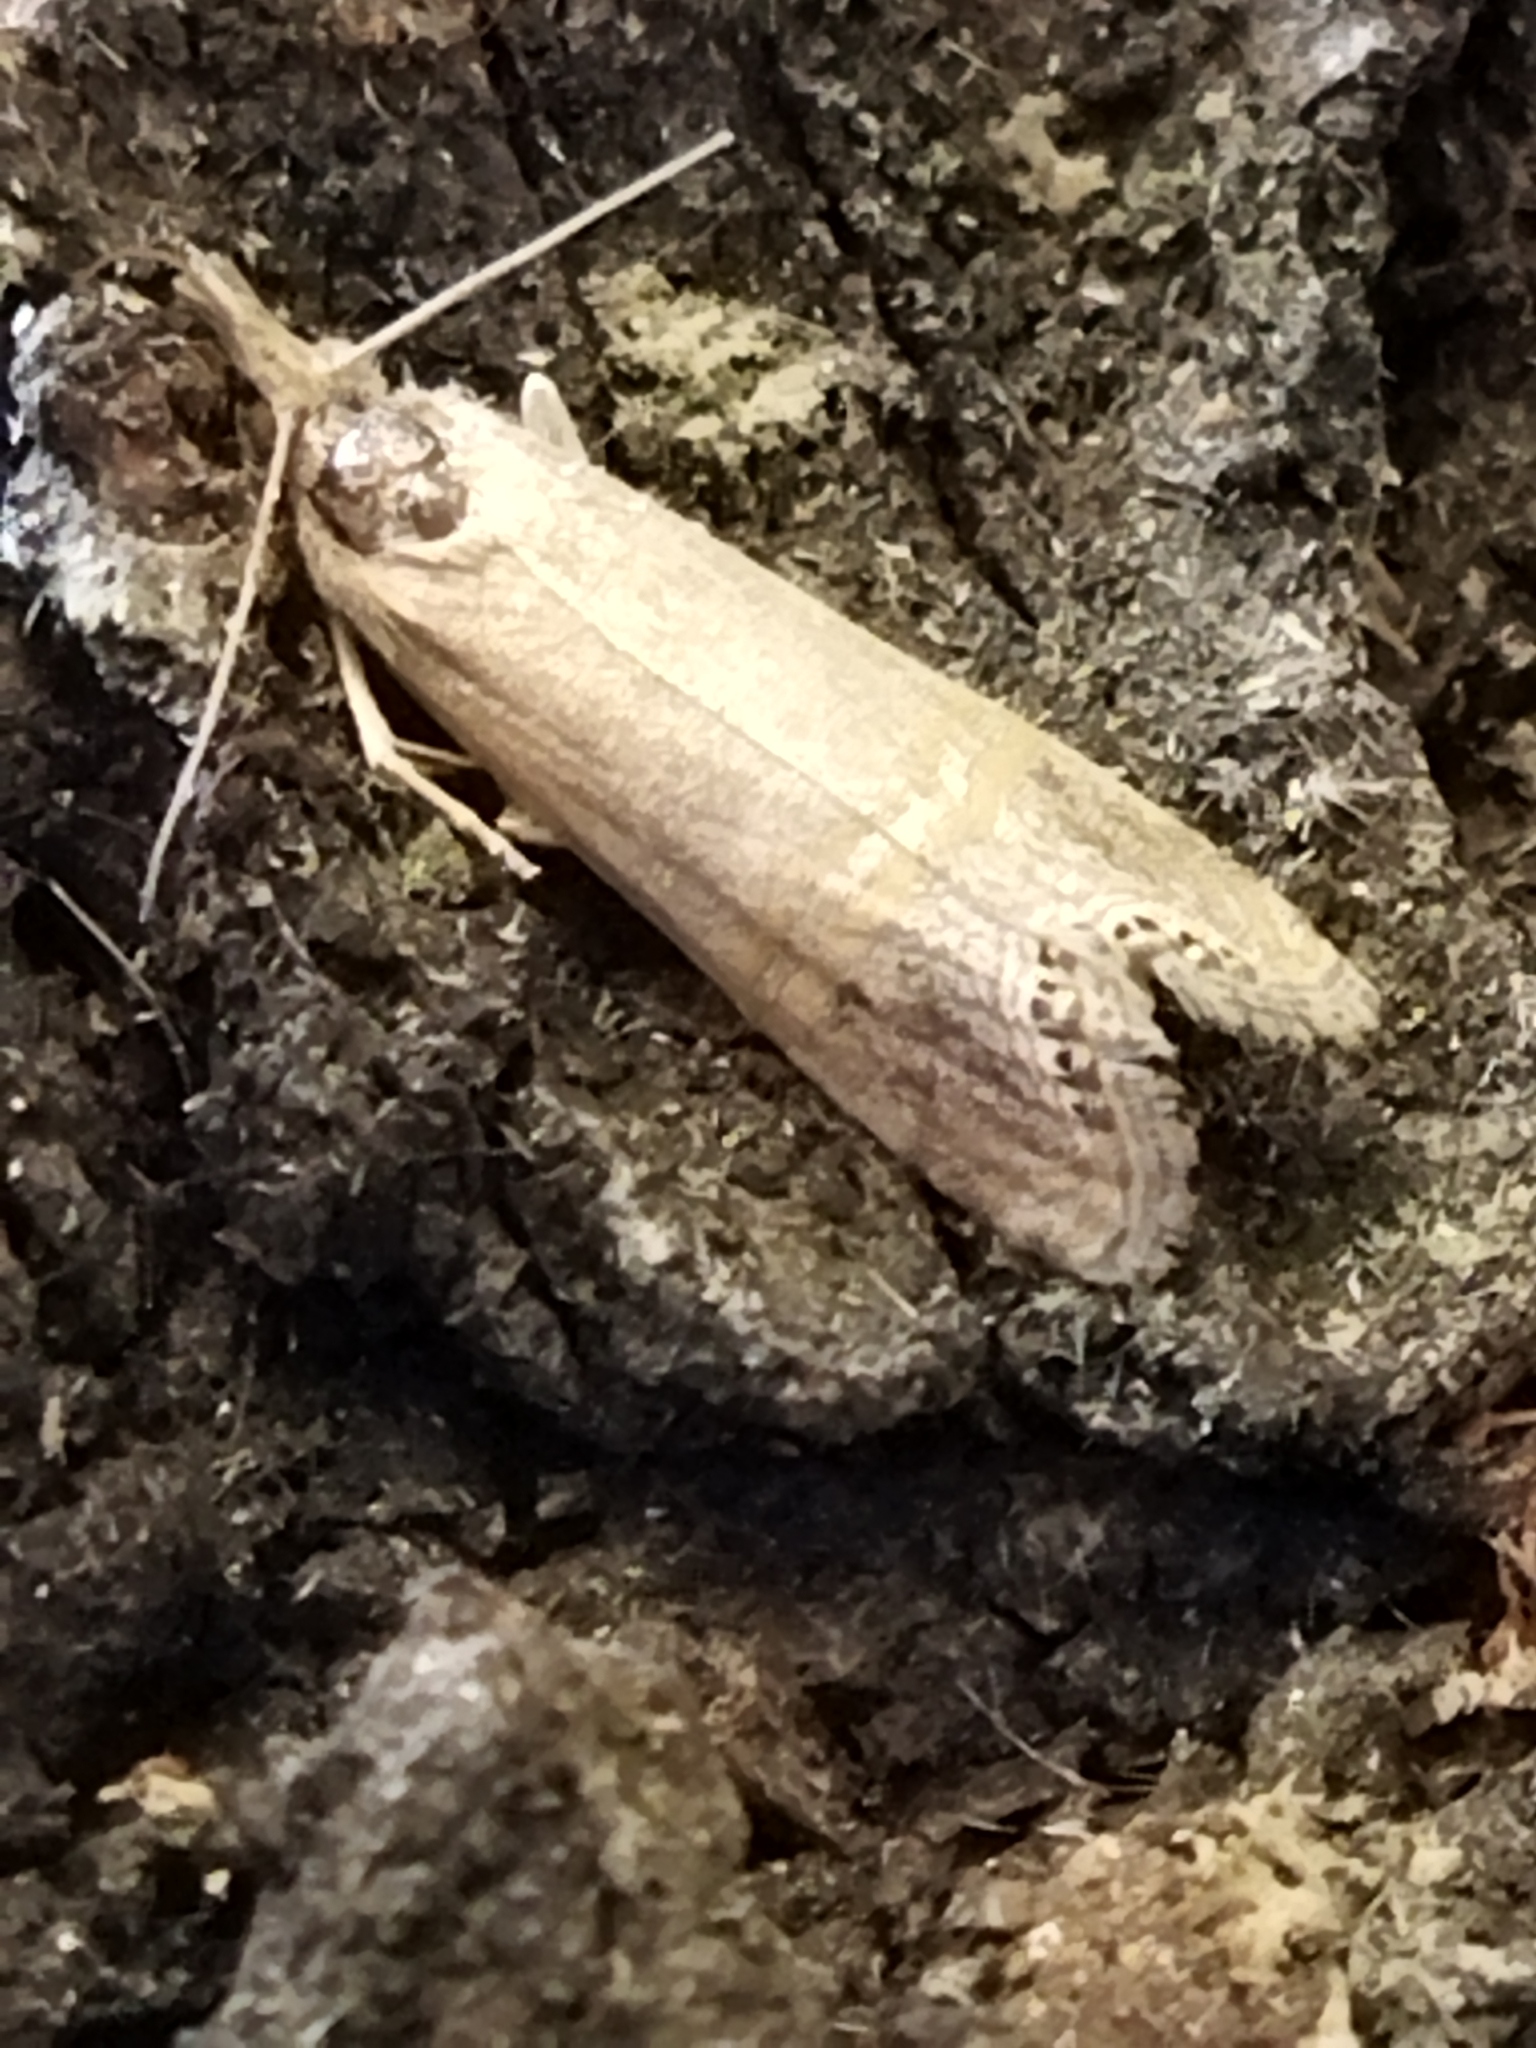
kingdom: Animalia
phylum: Arthropoda
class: Insecta
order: Lepidoptera
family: Crambidae
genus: Euchromius
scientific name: Euchromius ocellea
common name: Necklace veneer moth
